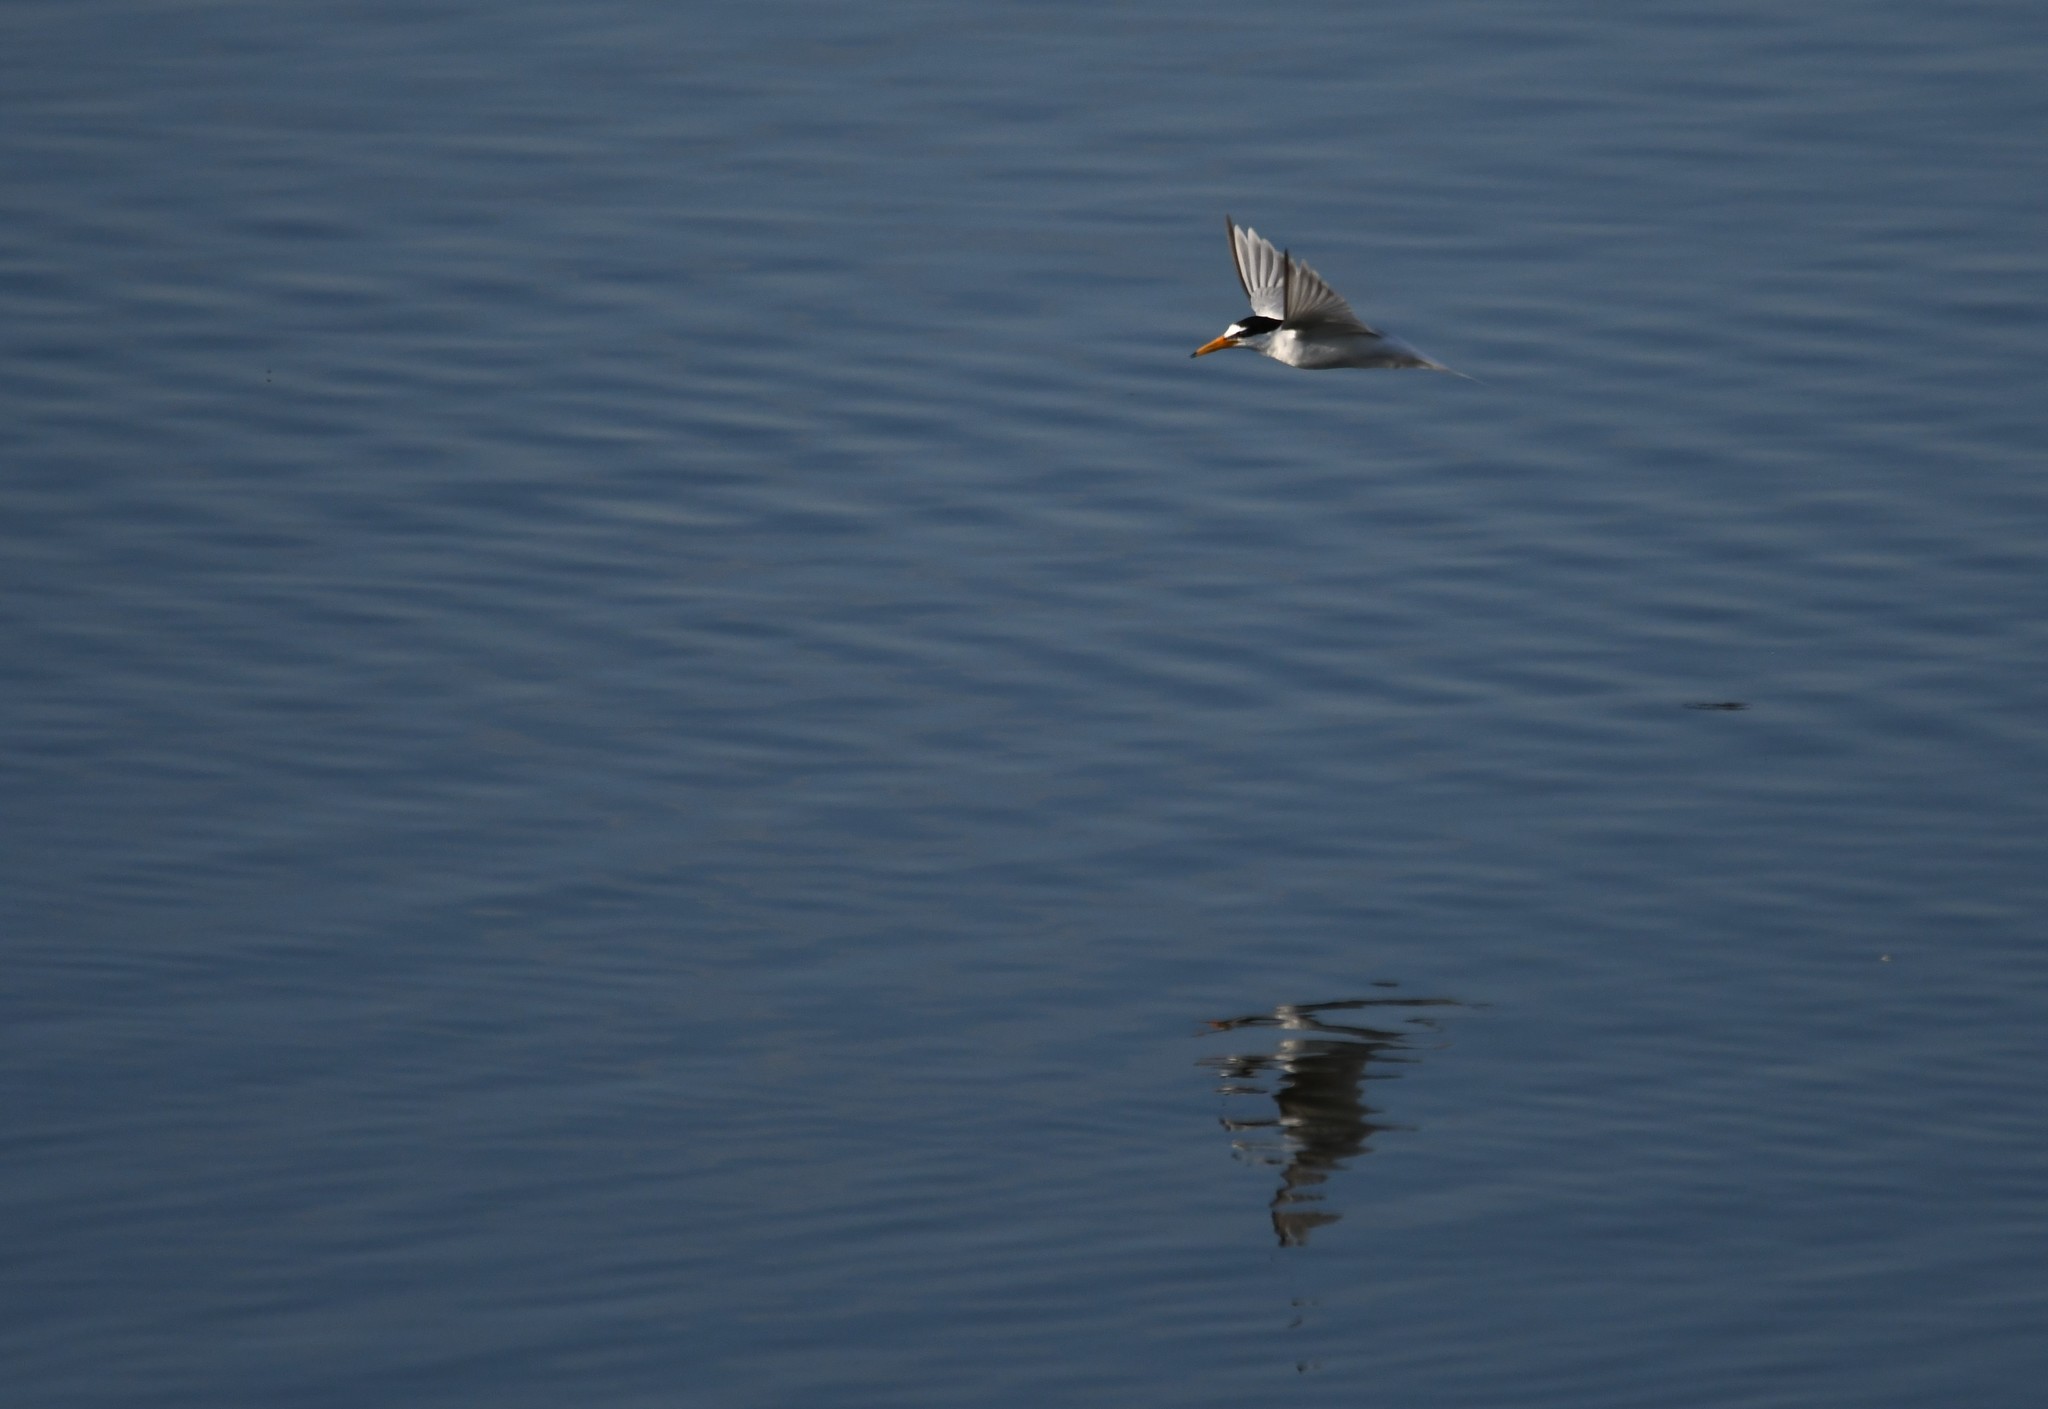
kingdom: Animalia
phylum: Chordata
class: Aves
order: Charadriiformes
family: Laridae
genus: Sternula
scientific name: Sternula albifrons
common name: Little tern
